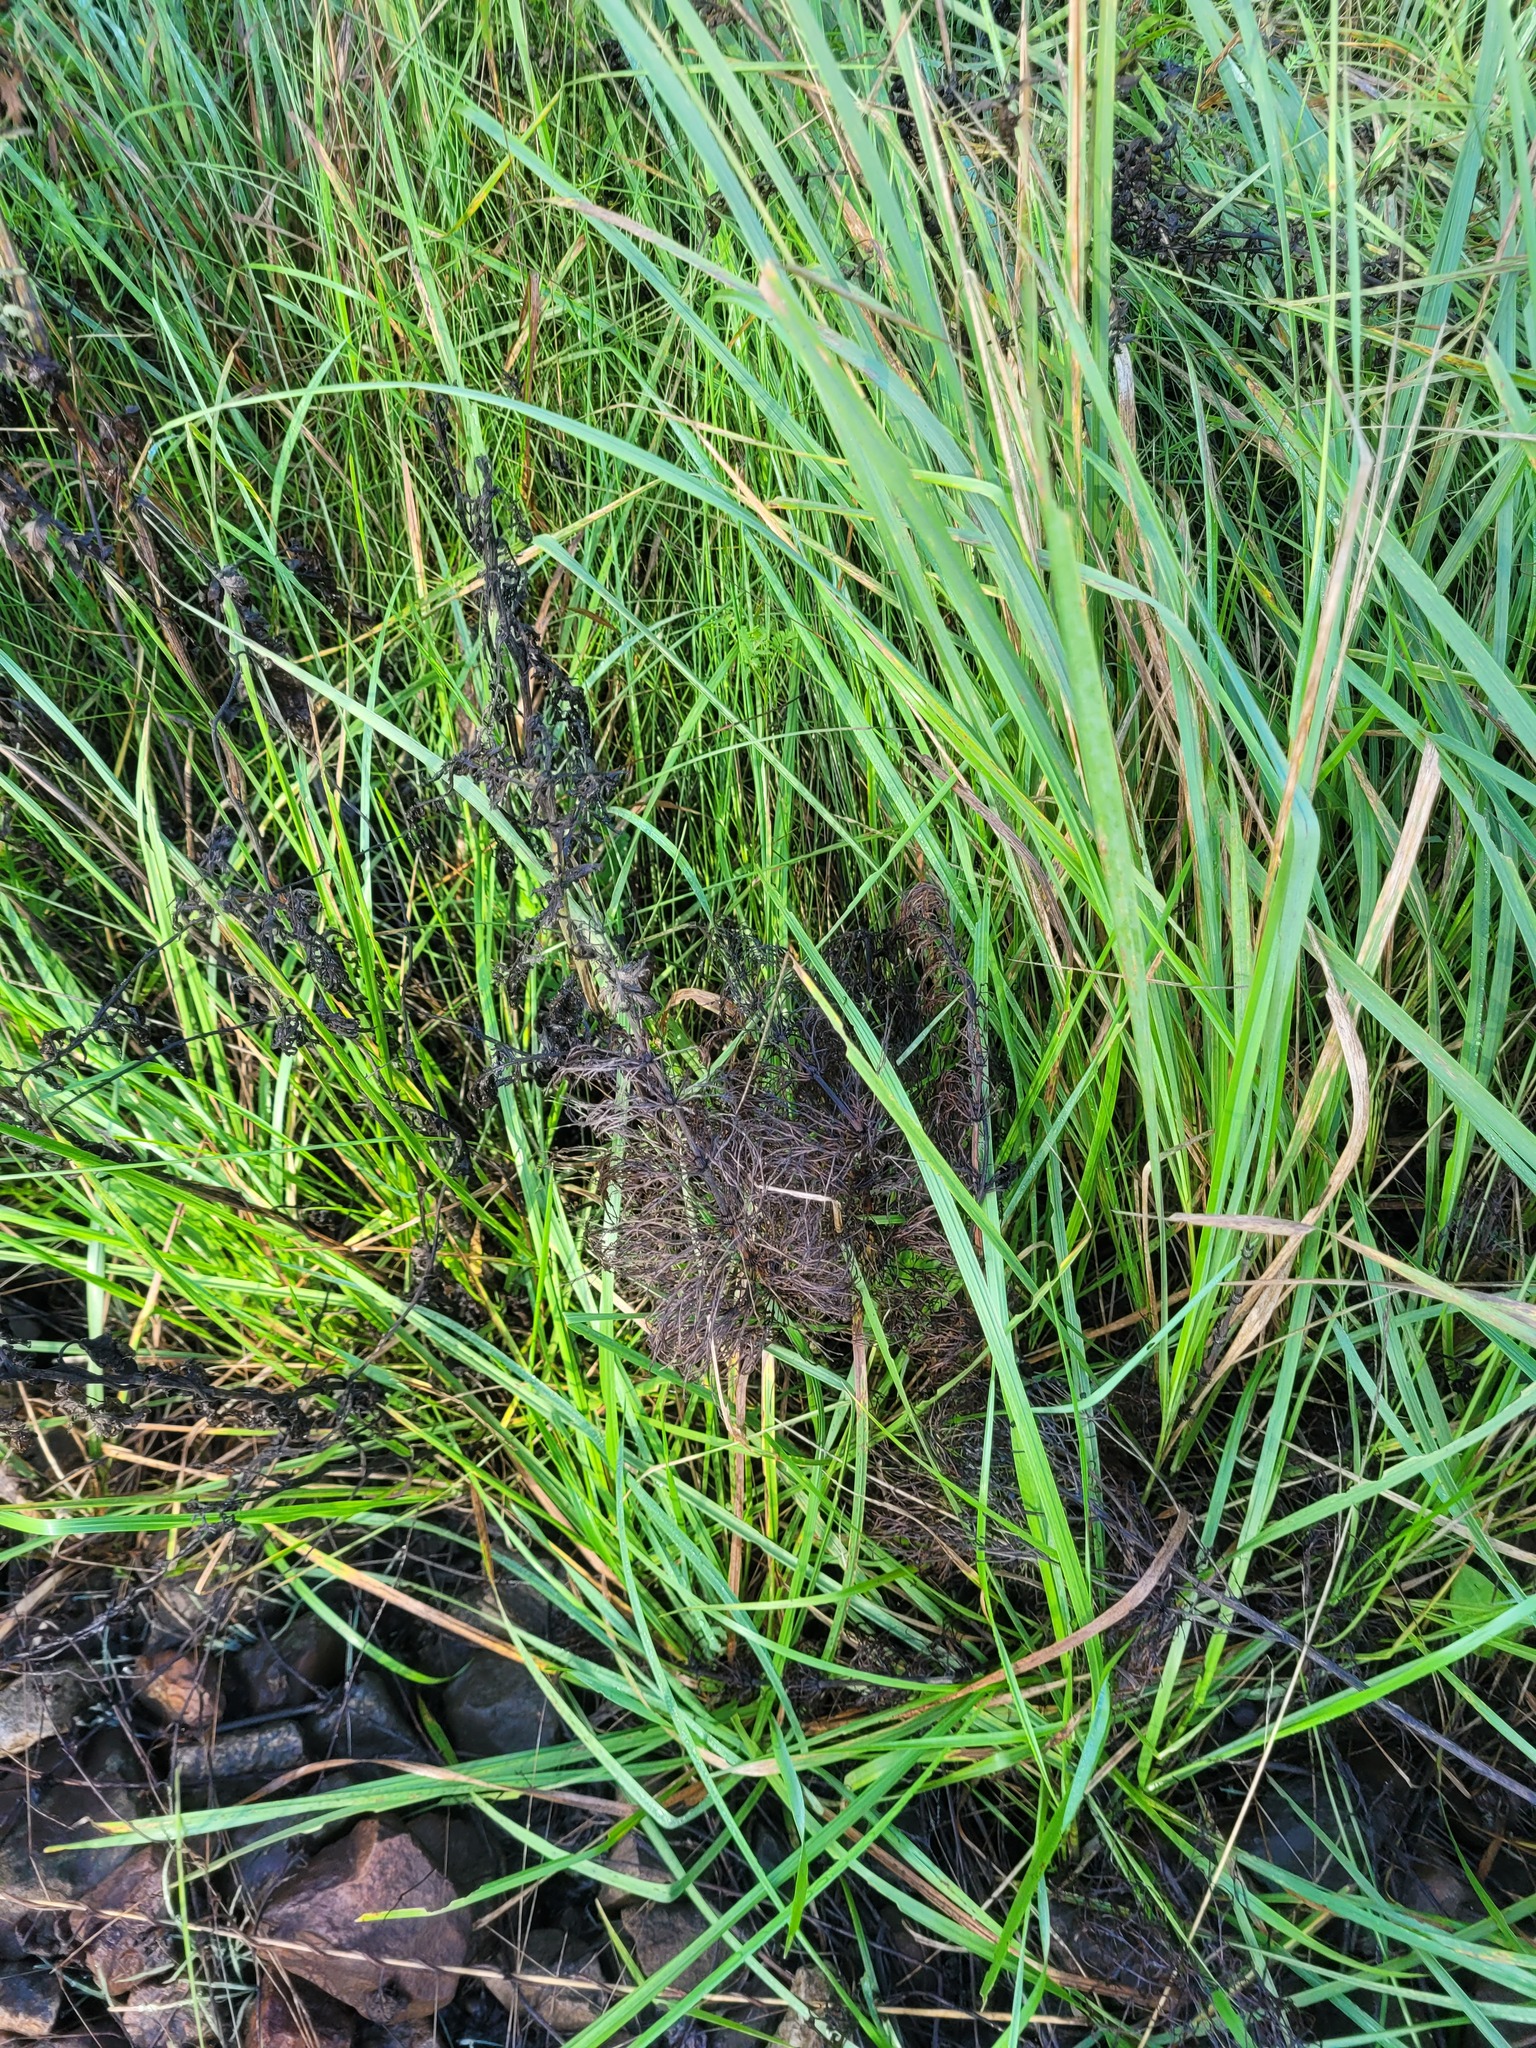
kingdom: Plantae
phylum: Tracheophyta
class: Polypodiopsida
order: Equisetales
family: Equisetaceae
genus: Equisetum
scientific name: Equisetum sylvaticum
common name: Wood horsetail
